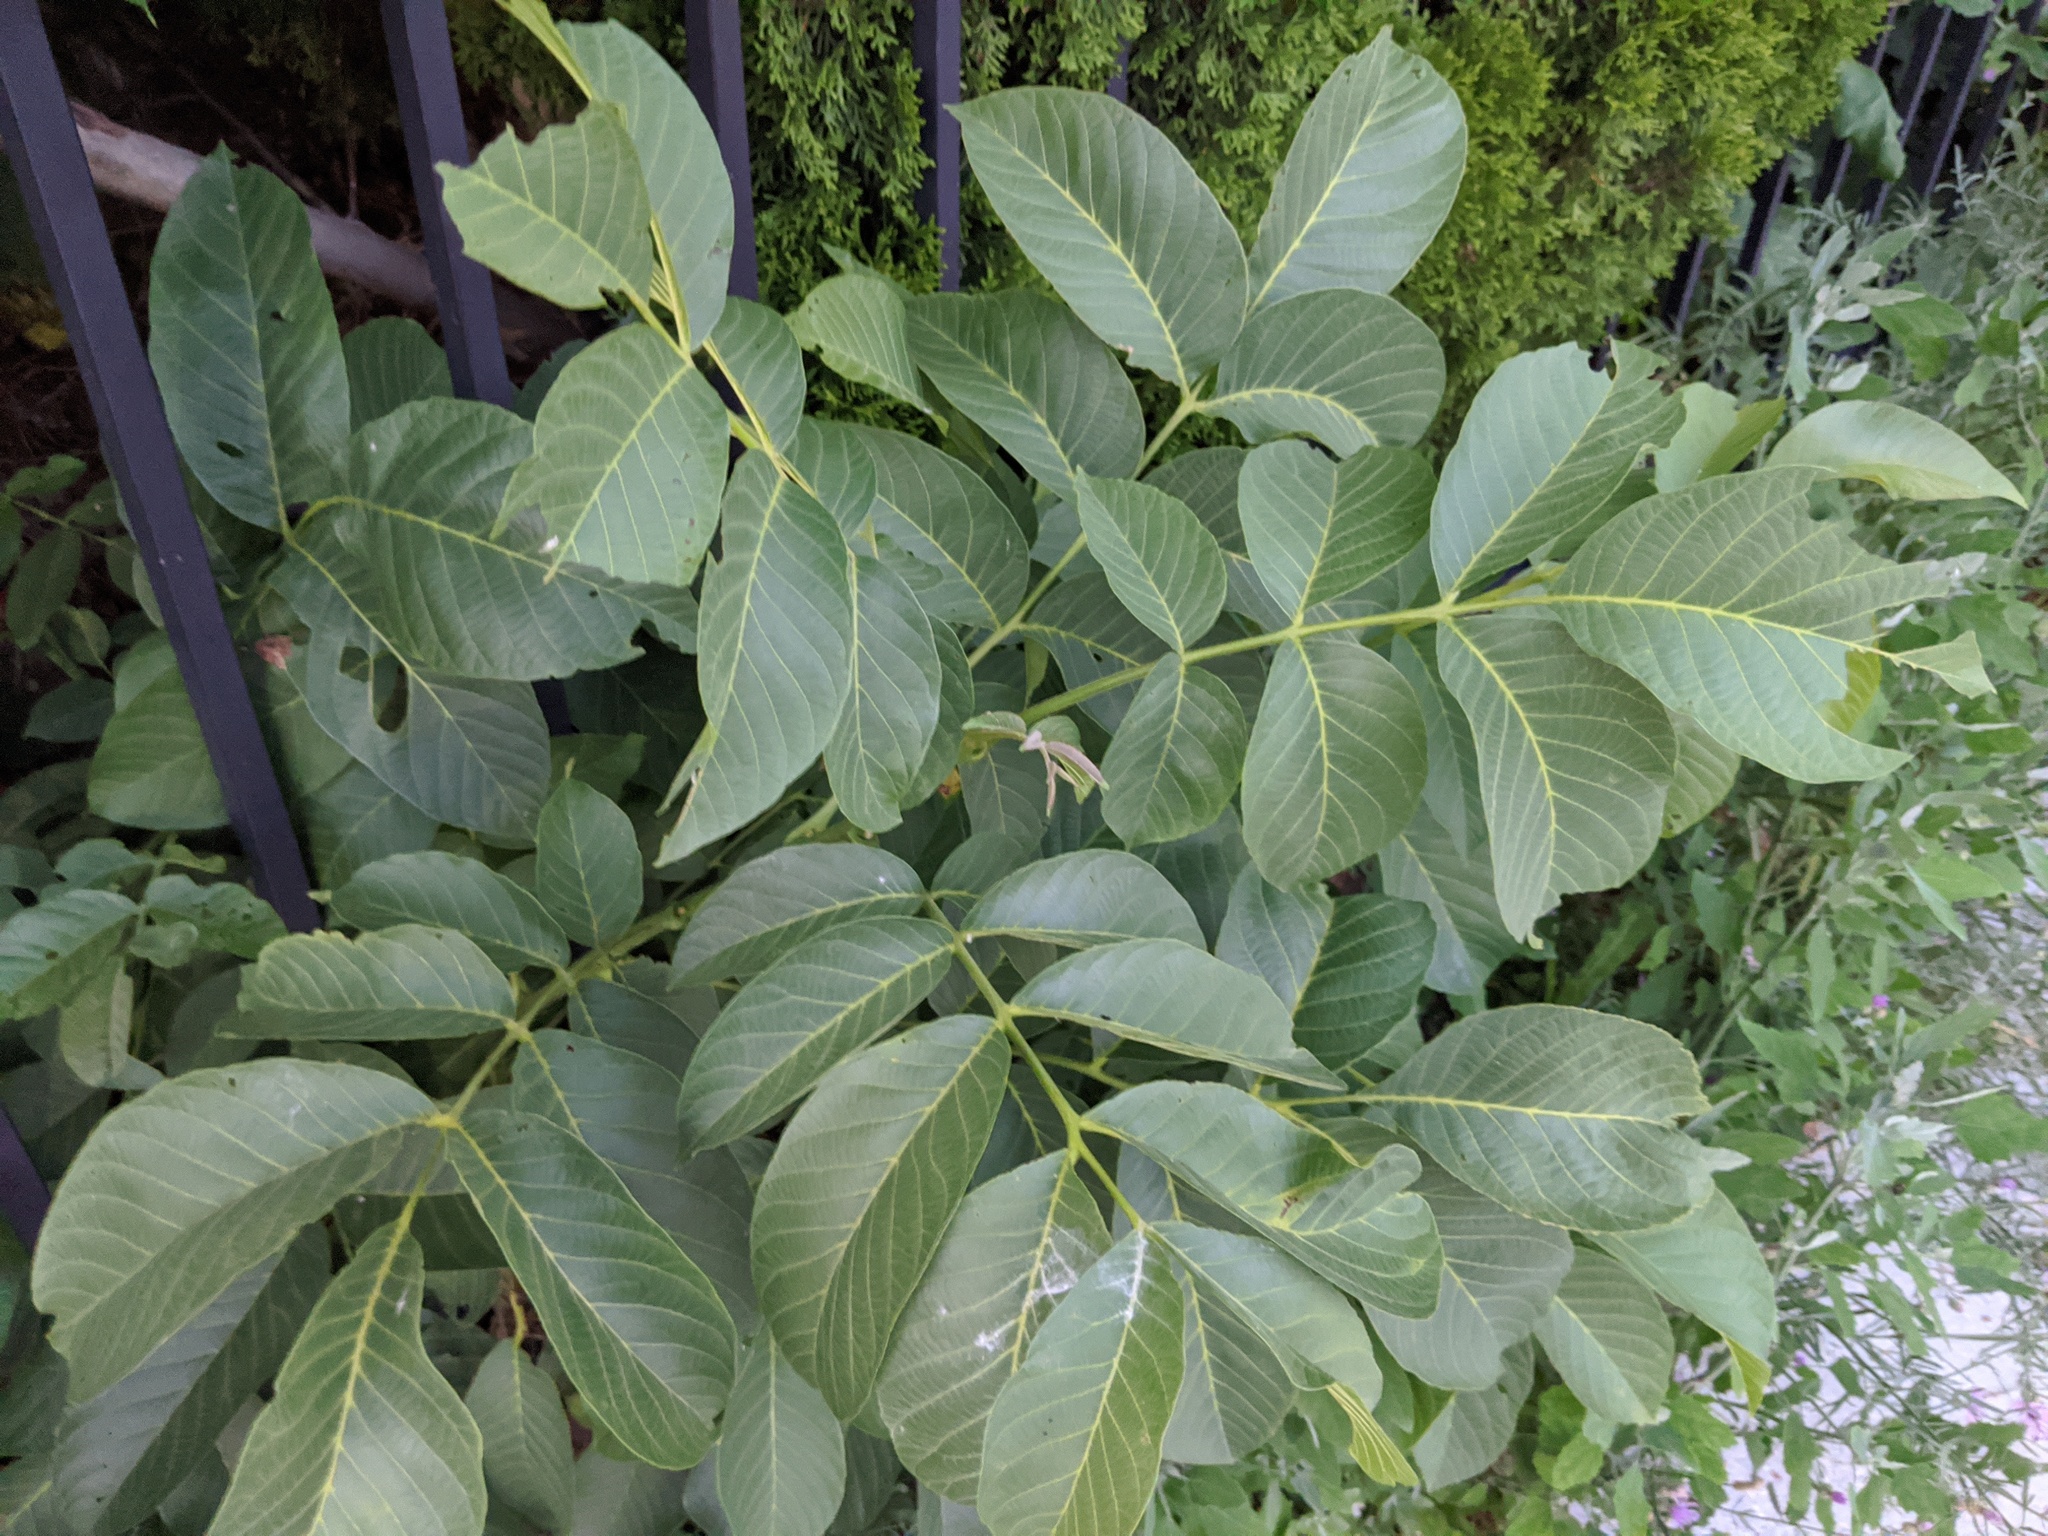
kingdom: Plantae
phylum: Tracheophyta
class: Magnoliopsida
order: Fagales
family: Juglandaceae
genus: Juglans
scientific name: Juglans regia
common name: Walnut
